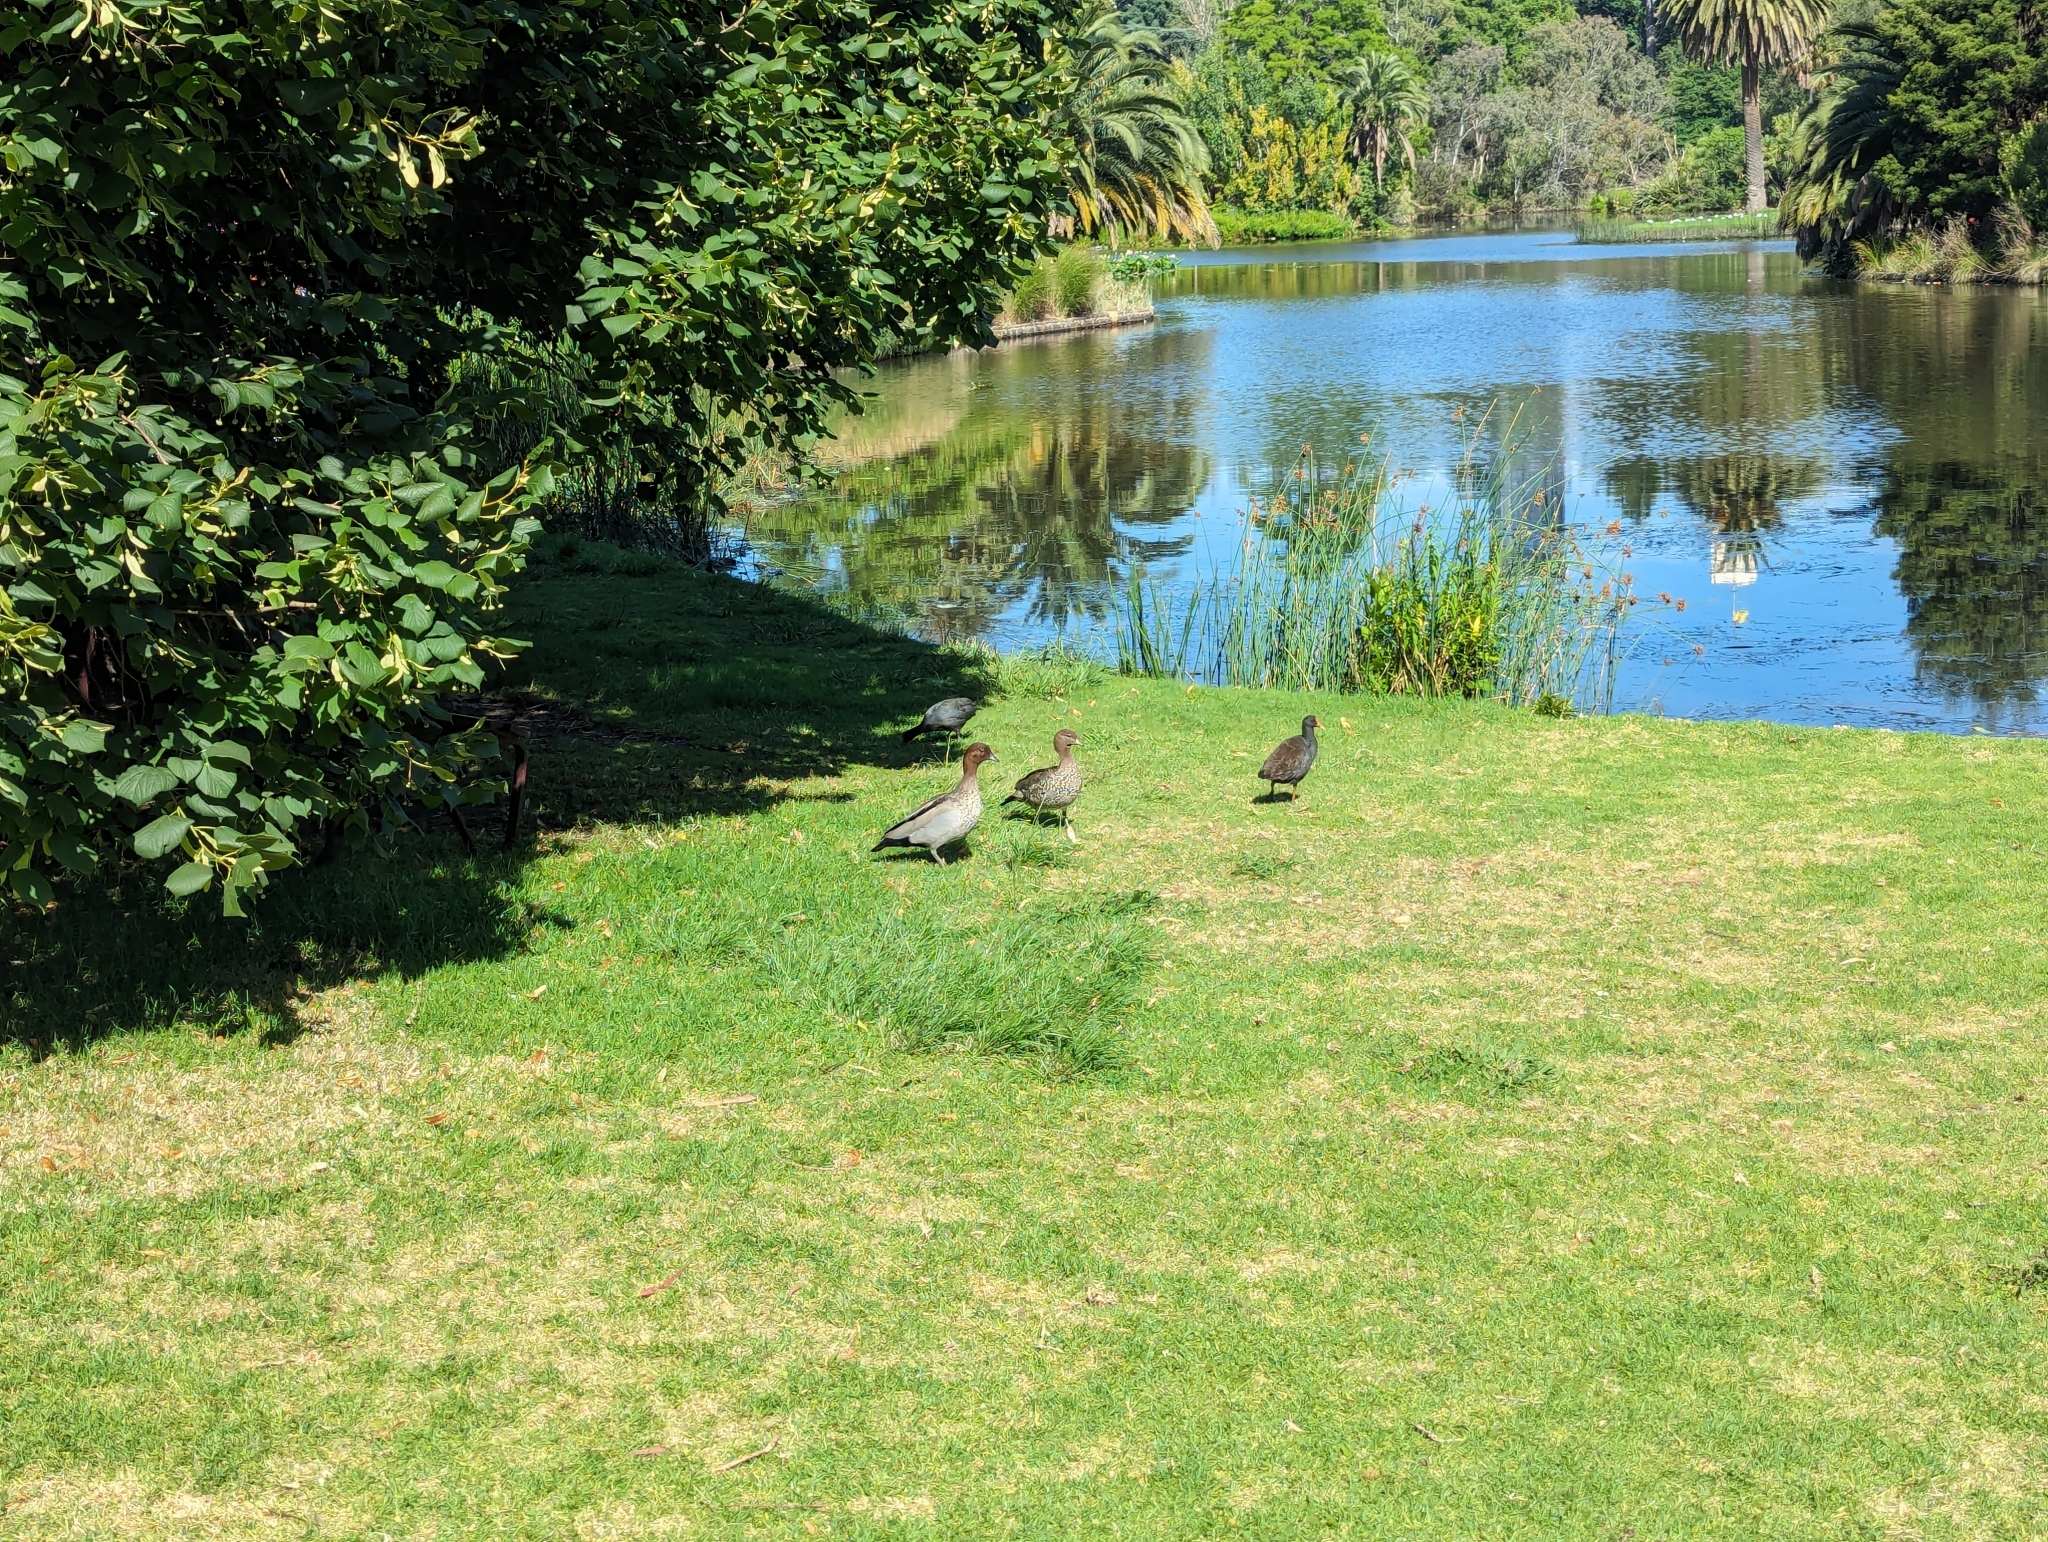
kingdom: Animalia
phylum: Chordata
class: Aves
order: Anseriformes
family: Anatidae
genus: Chenonetta
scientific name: Chenonetta jubata
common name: Maned duck
